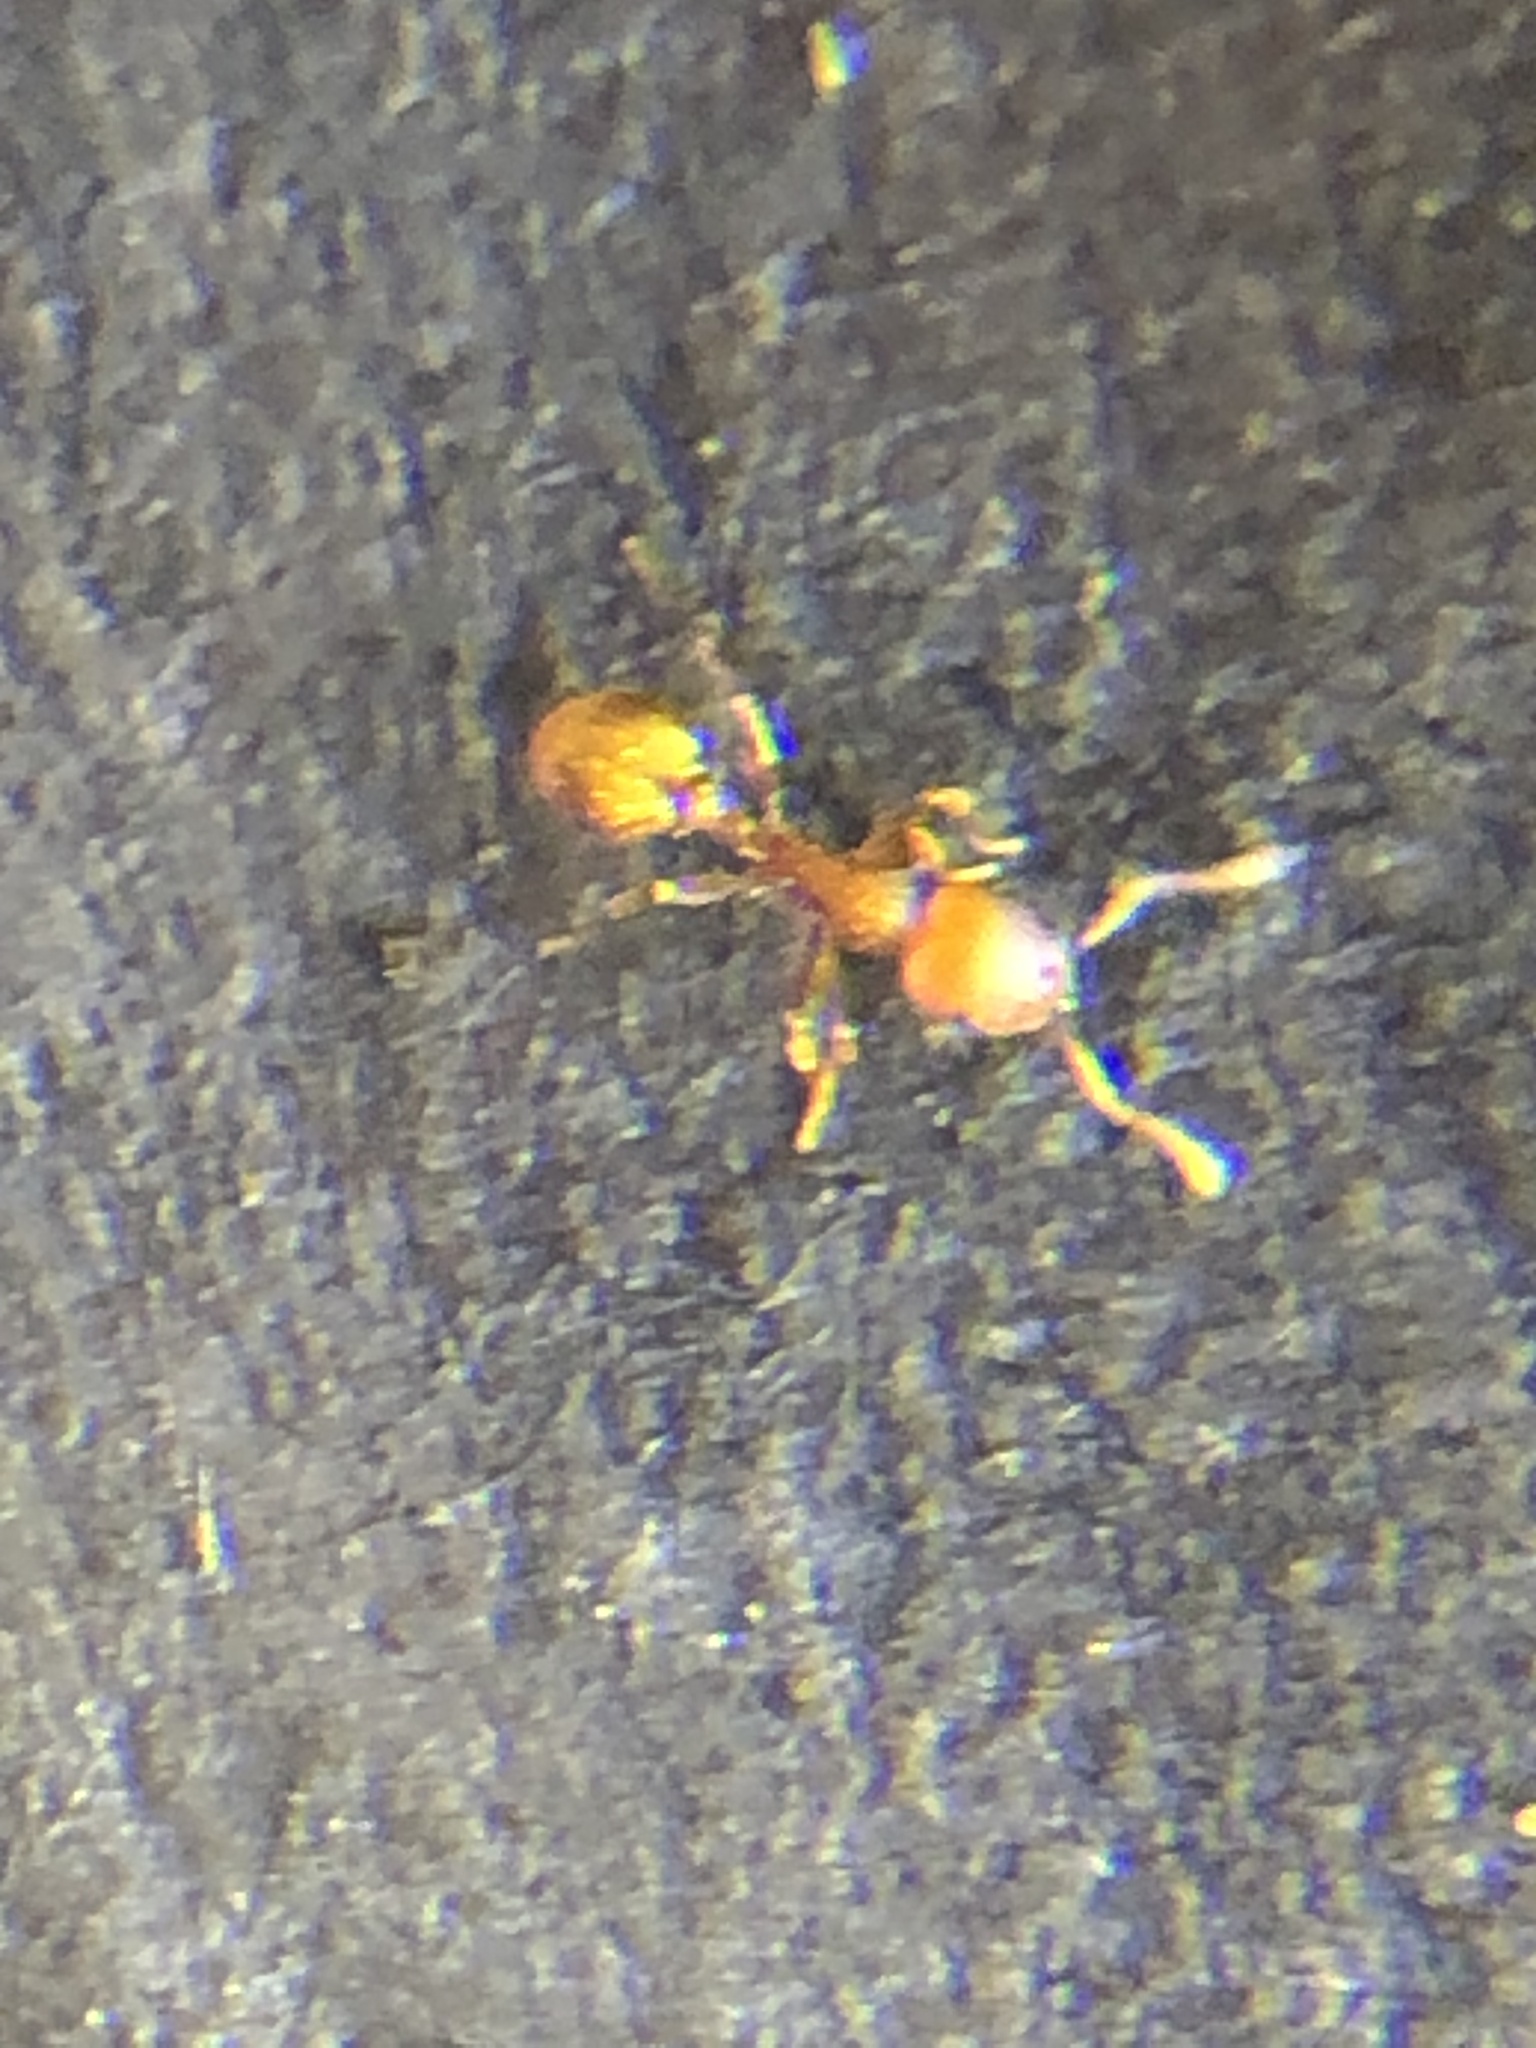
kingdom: Animalia
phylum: Arthropoda
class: Insecta
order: Hymenoptera
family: Formicidae
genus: Temnothorax
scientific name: Temnothorax curvispinosus
